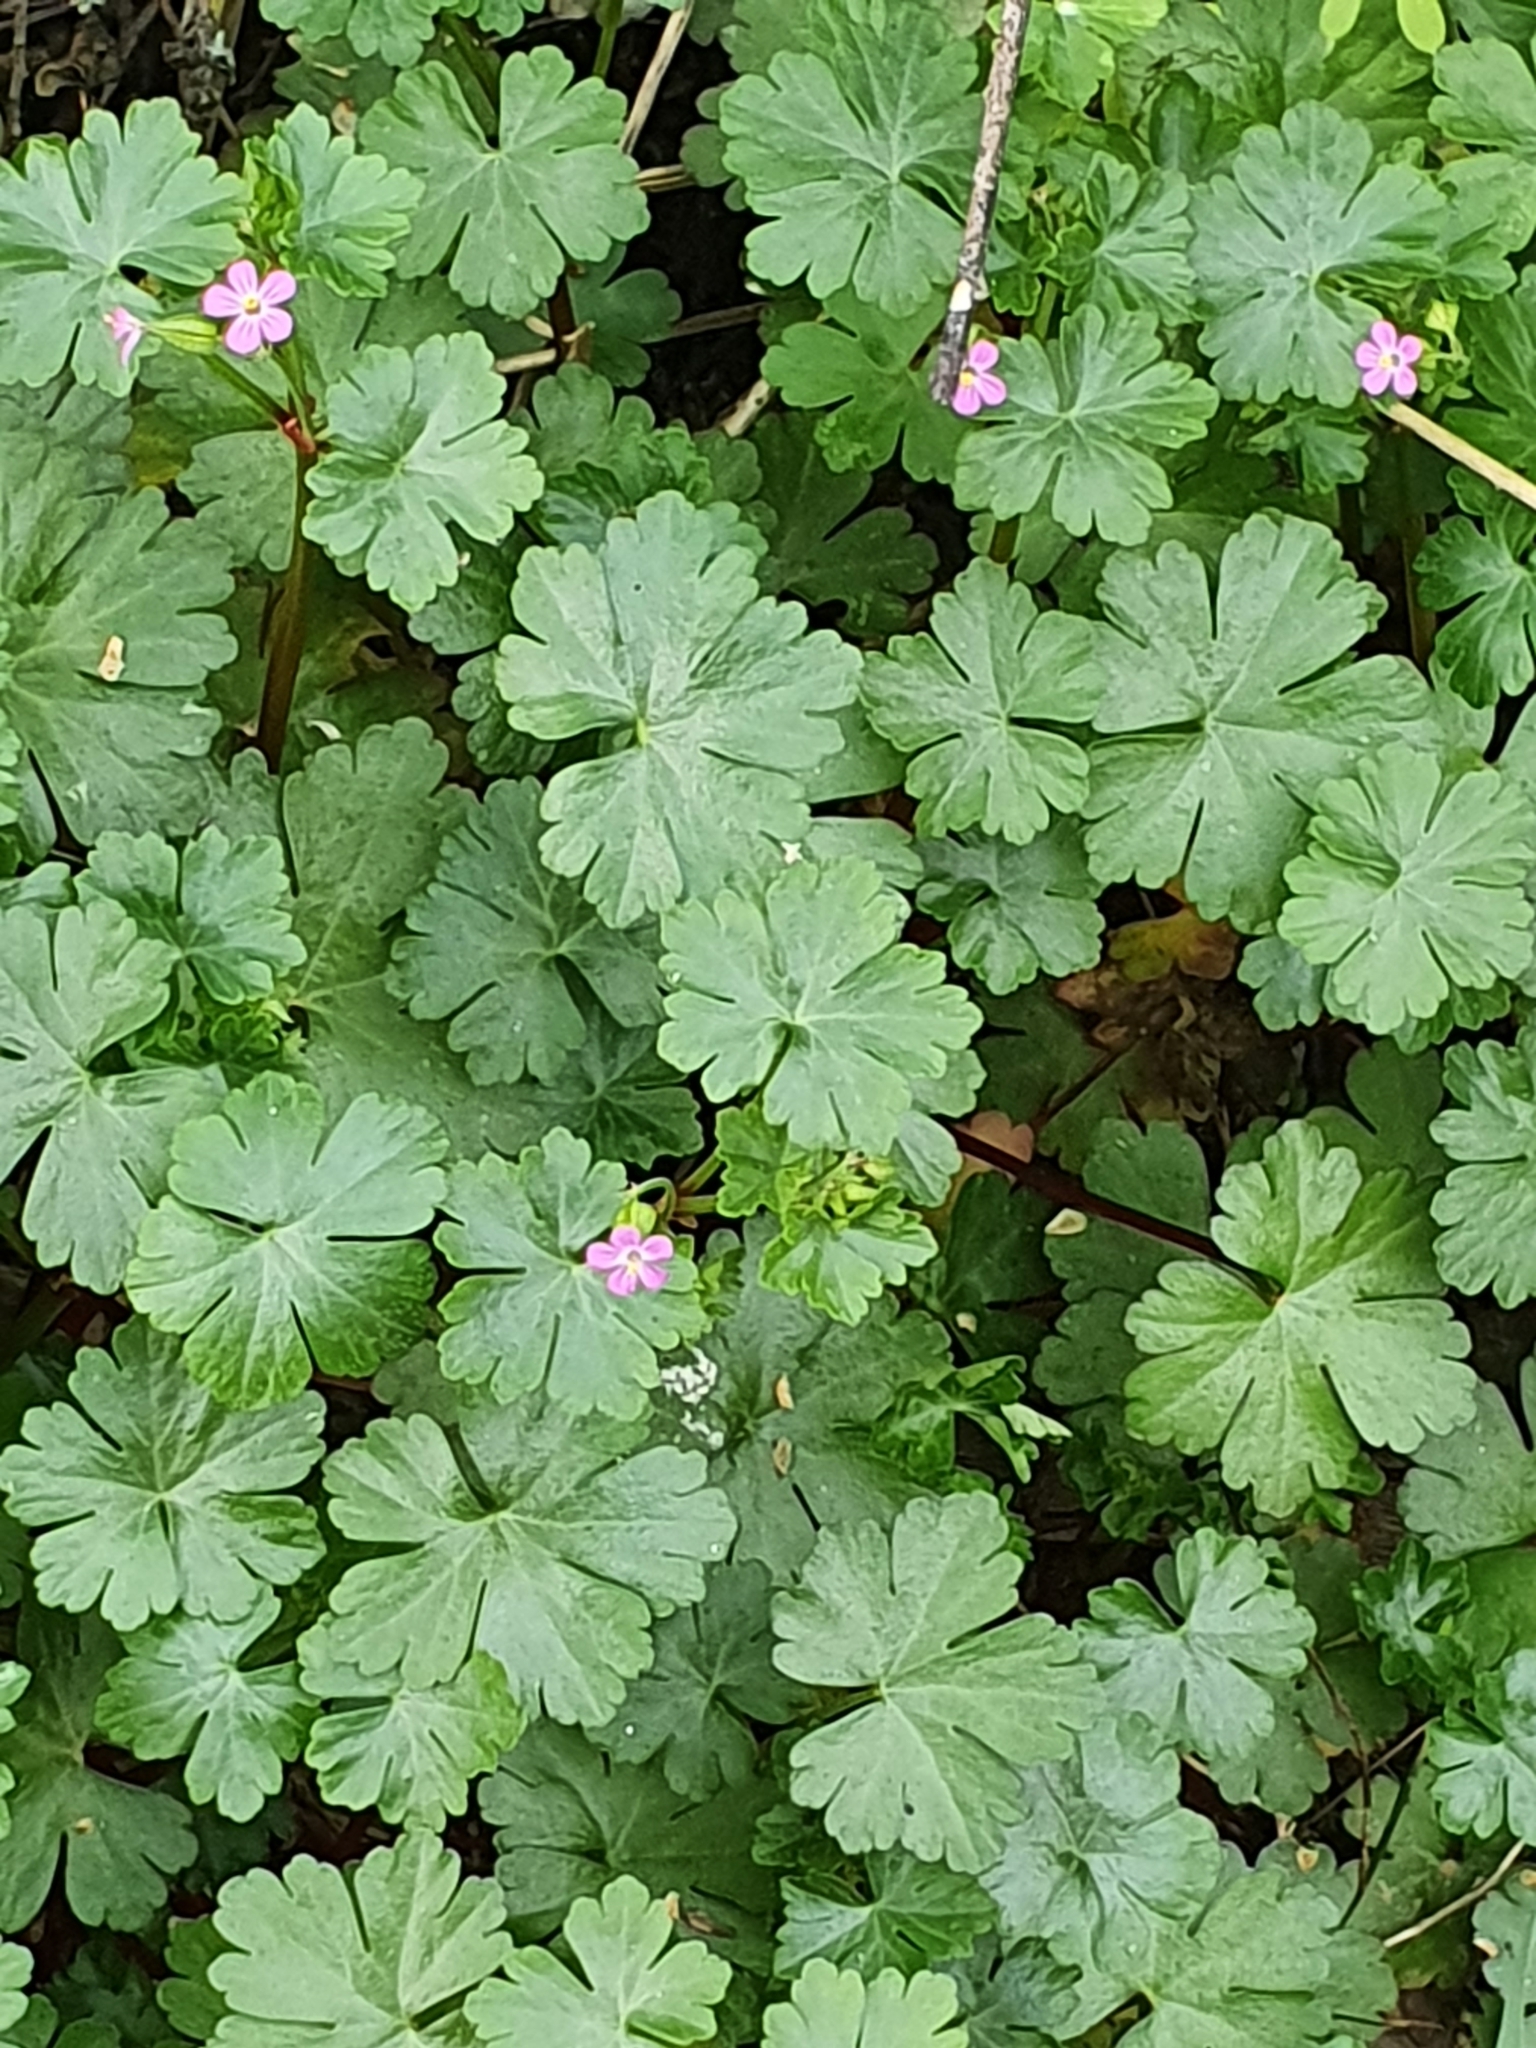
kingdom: Plantae
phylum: Tracheophyta
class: Magnoliopsida
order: Geraniales
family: Geraniaceae
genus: Geranium
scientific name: Geranium lucidum
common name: Shining crane's-bill
